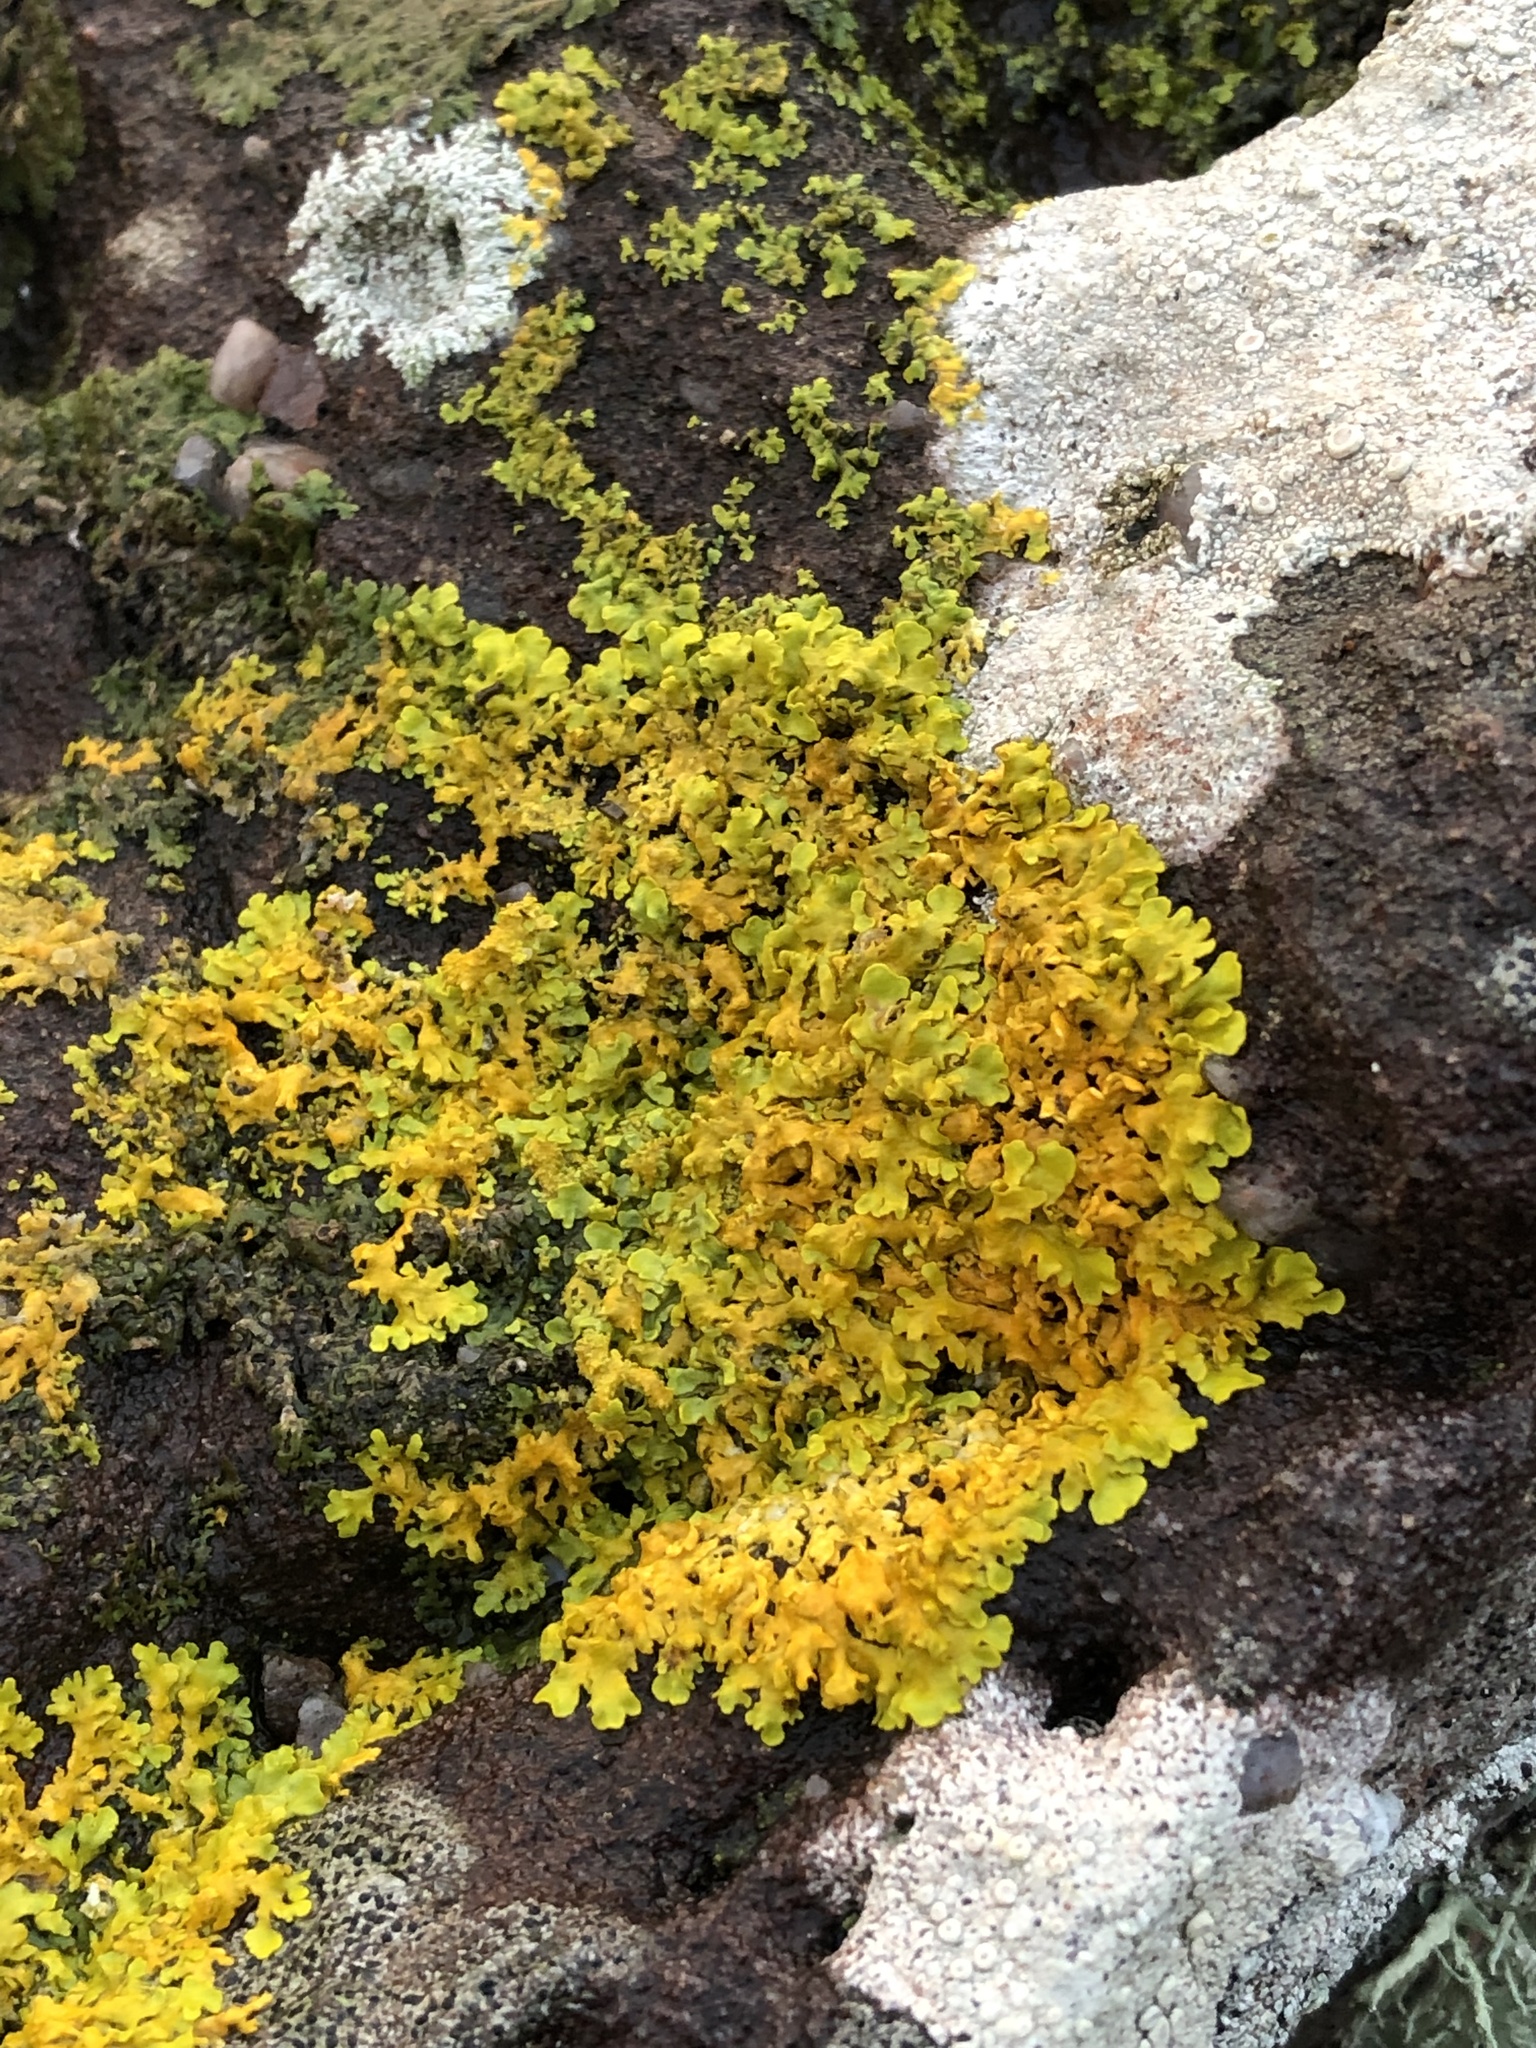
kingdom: Fungi
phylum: Ascomycota
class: Lecanoromycetes
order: Teloschistales
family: Teloschistaceae
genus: Xanthoria
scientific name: Xanthoria parietina
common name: Common orange lichen
